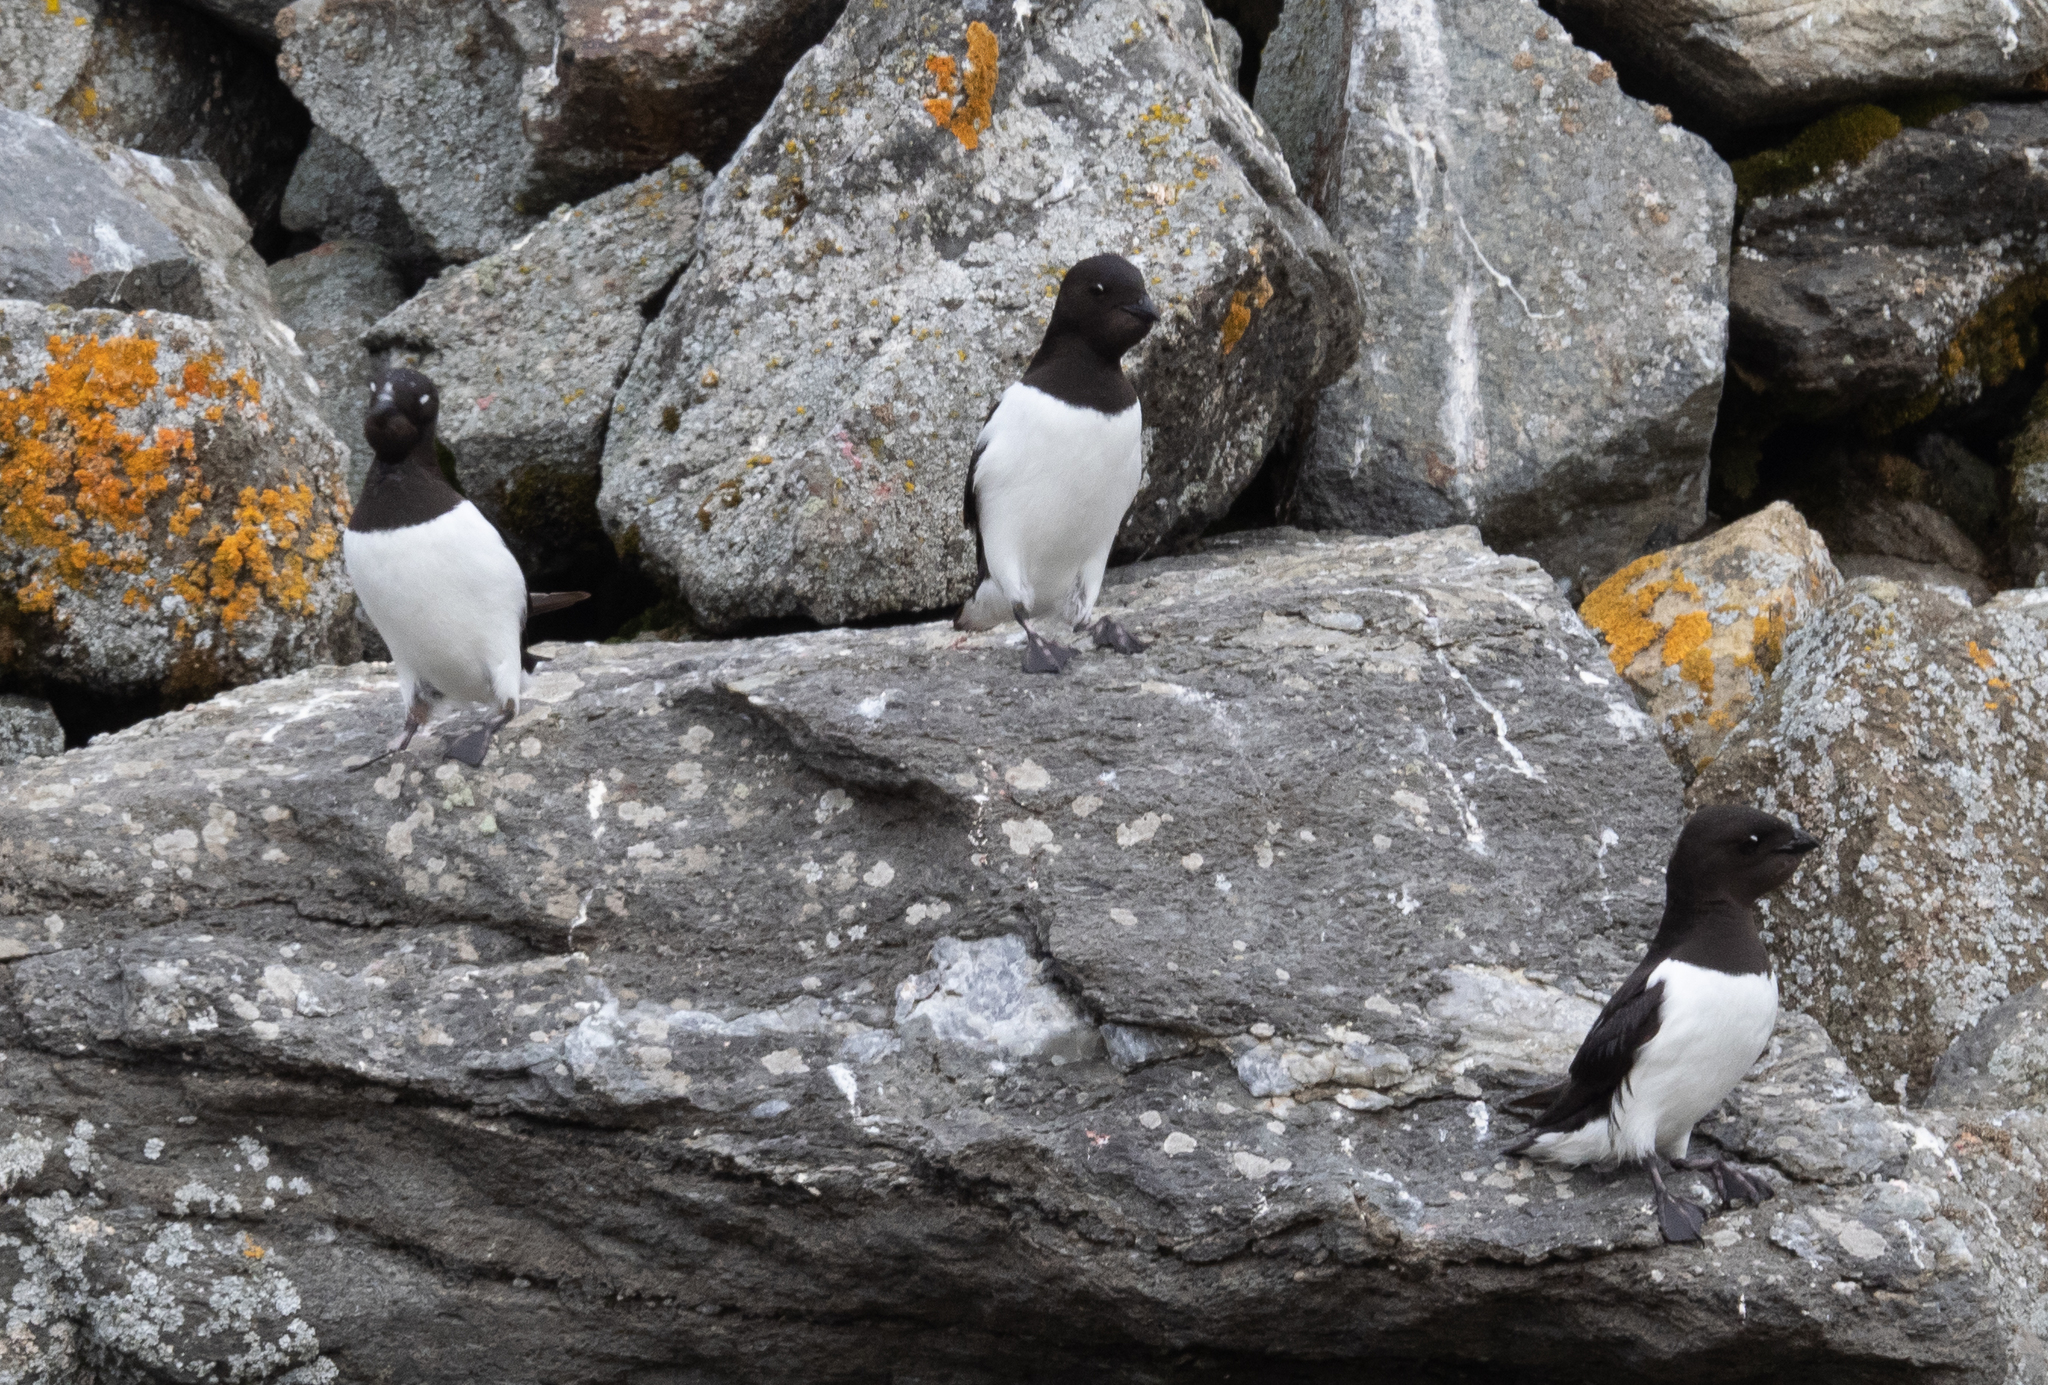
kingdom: Animalia
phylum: Chordata
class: Aves
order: Charadriiformes
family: Alcidae
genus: Alle
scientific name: Alle alle
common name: Little auk
